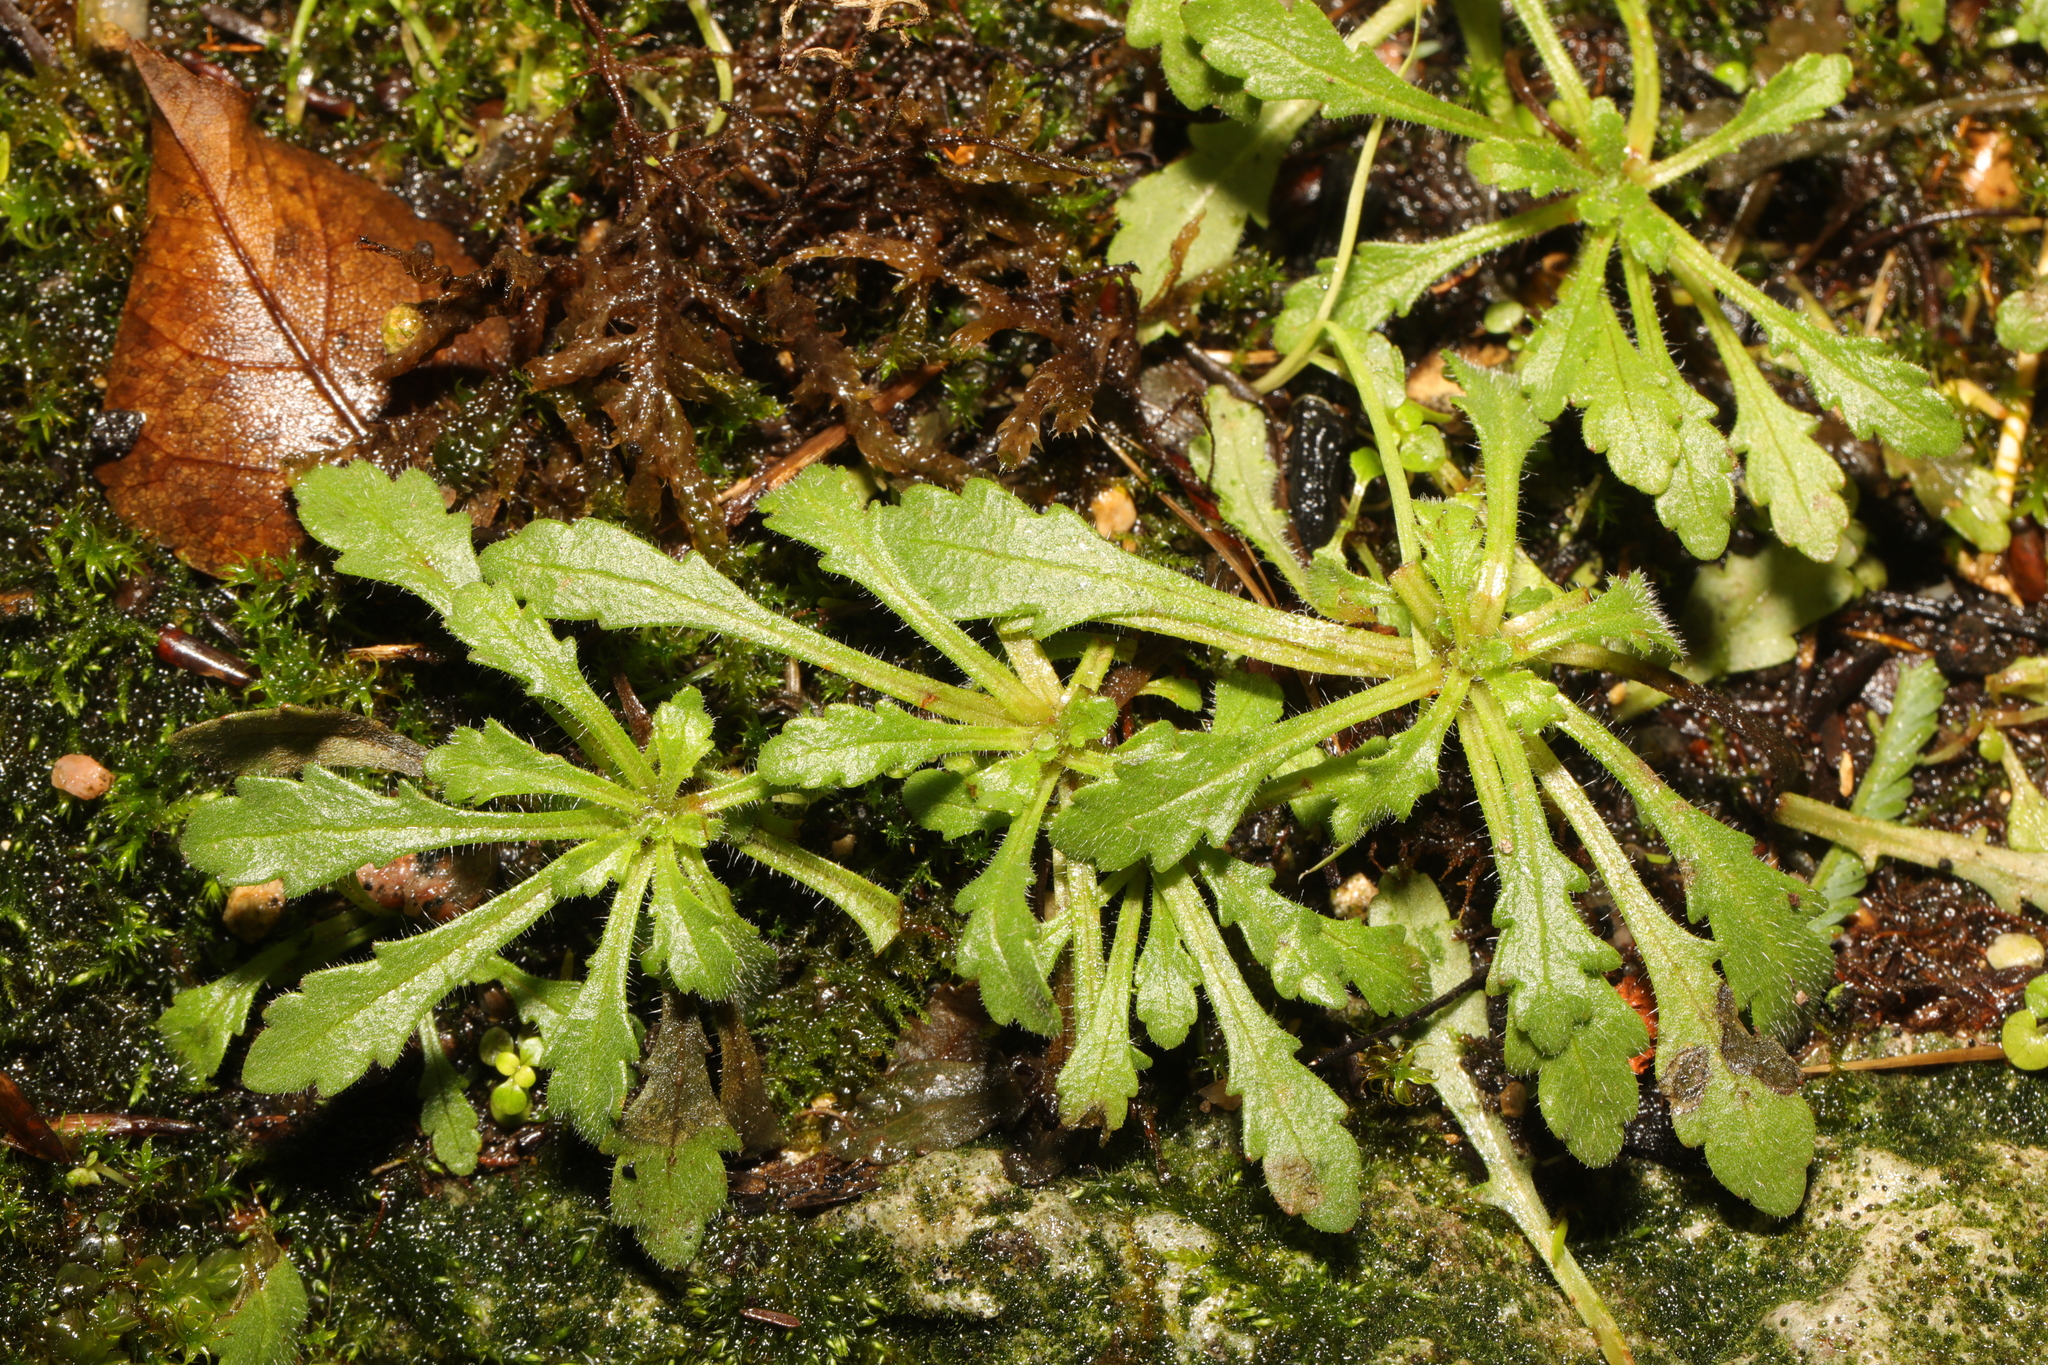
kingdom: Plantae
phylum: Tracheophyta
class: Magnoliopsida
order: Asterales
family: Asteraceae
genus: Senecio
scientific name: Senecio vulgaris
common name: Old-man-in-the-spring
